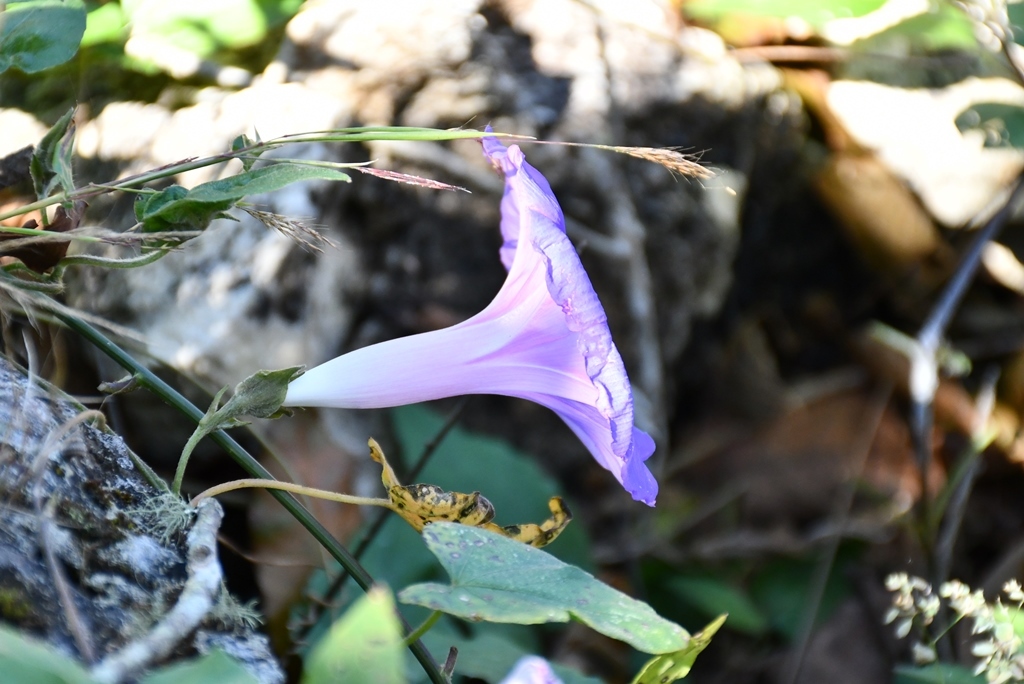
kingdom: Plantae
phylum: Tracheophyta
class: Magnoliopsida
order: Solanales
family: Convolvulaceae
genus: Ipomoea
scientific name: Ipomoea indica
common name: Blue dawnflower
